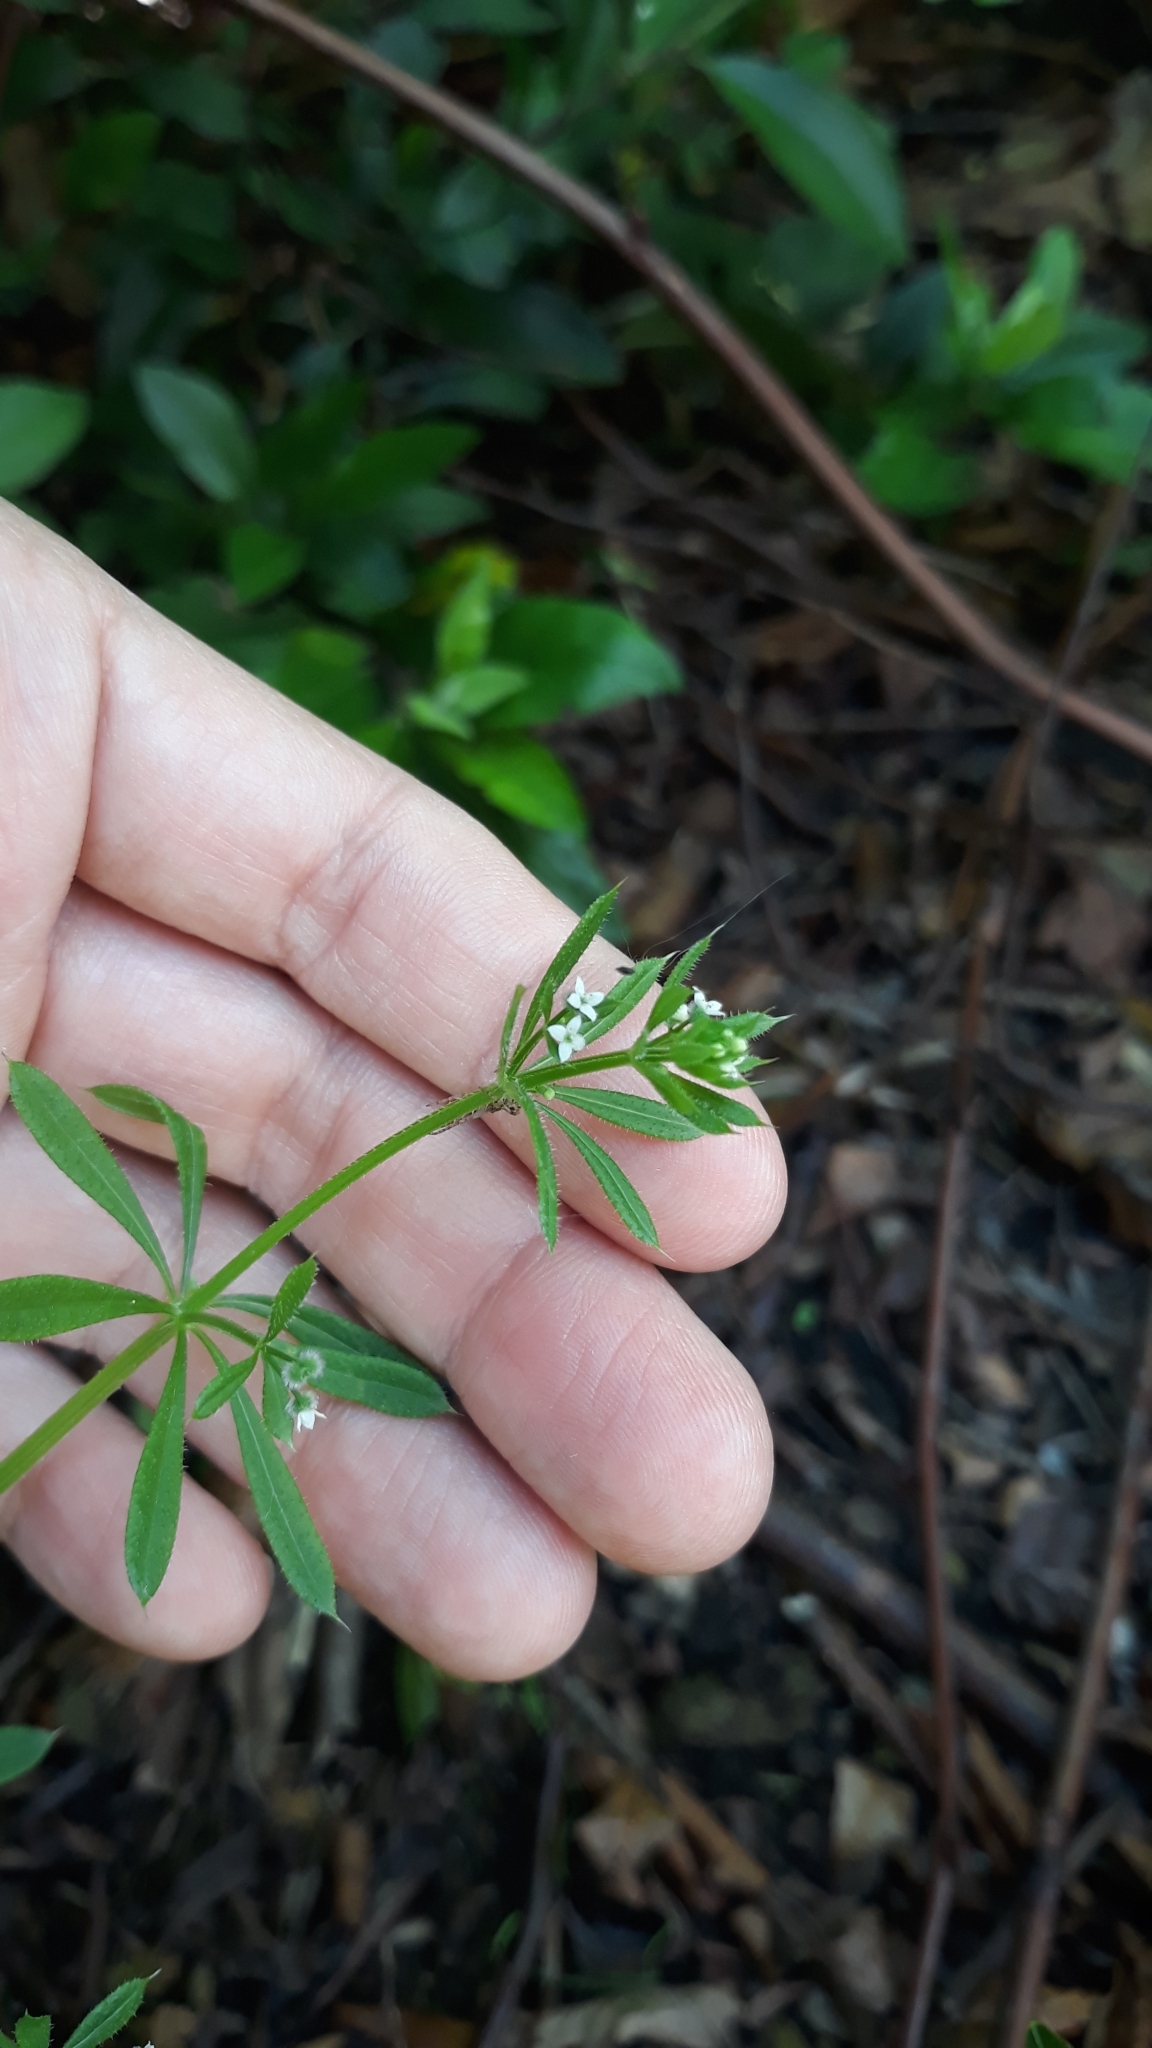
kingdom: Plantae
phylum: Tracheophyta
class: Magnoliopsida
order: Gentianales
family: Rubiaceae
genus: Galium
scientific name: Galium aparine
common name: Cleavers
